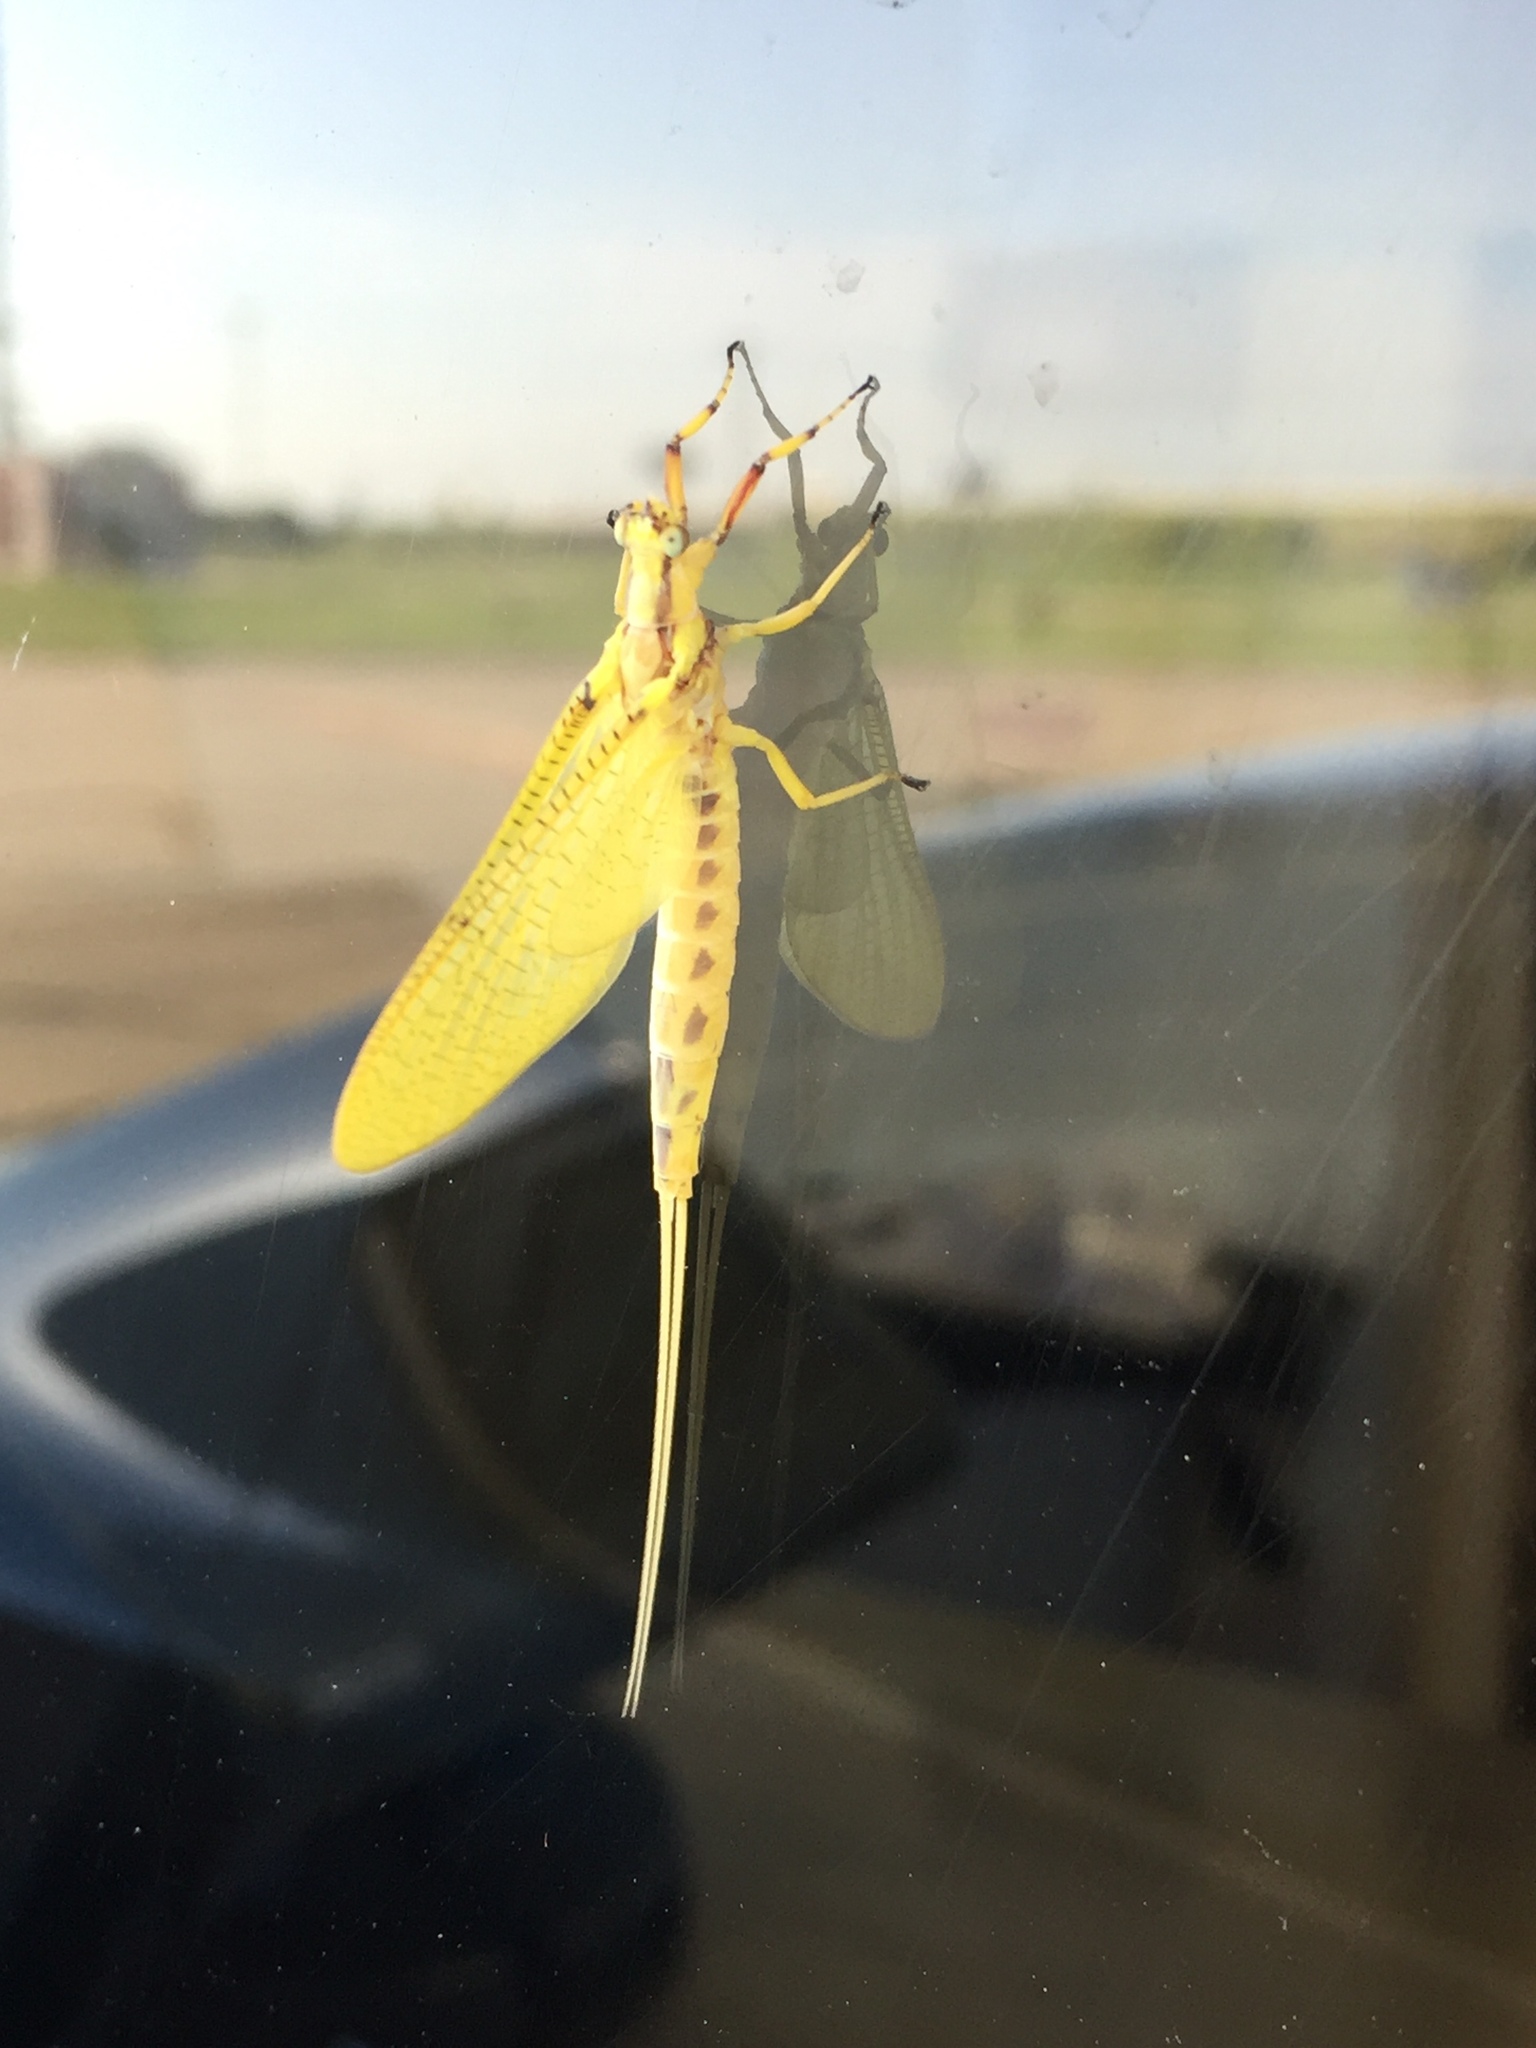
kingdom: Animalia
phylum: Arthropoda
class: Insecta
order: Ephemeroptera
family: Ephemeridae
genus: Hexagenia
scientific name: Hexagenia limbata
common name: Giant mayfly
